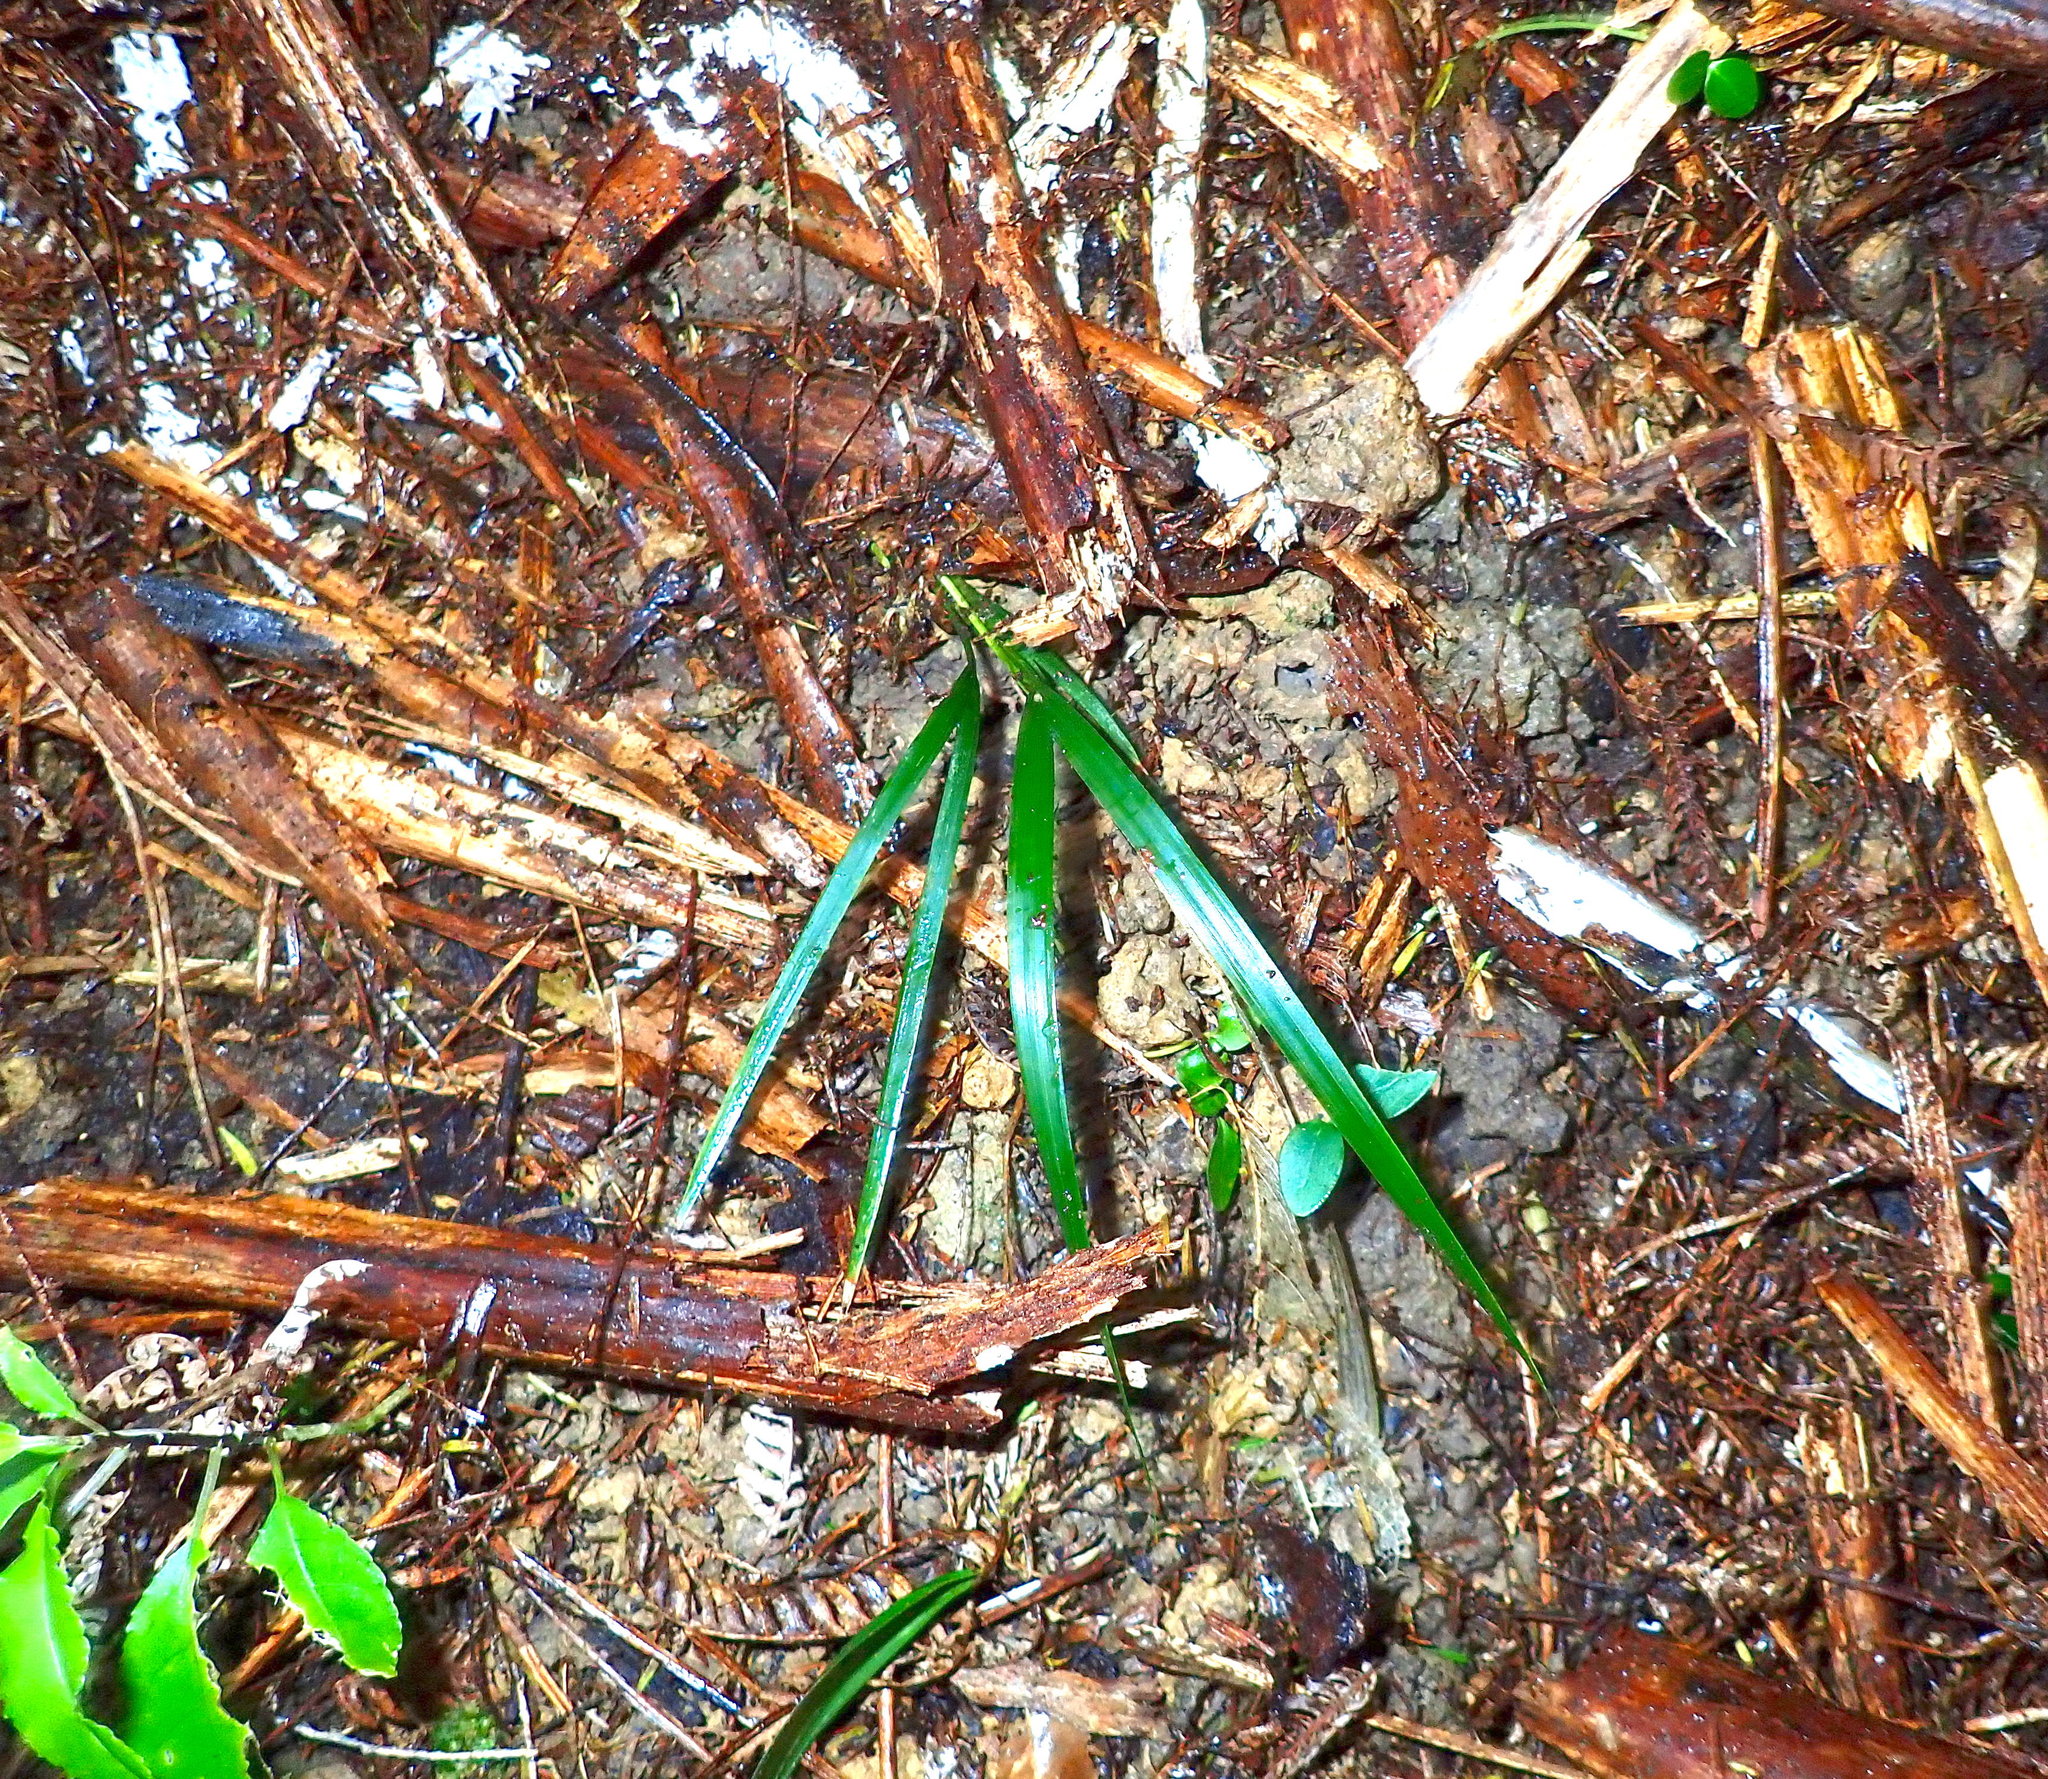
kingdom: Plantae
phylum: Tracheophyta
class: Magnoliopsida
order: Malpighiales
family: Violaceae
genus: Melicytus
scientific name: Melicytus ramiflorus
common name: Mahoe
